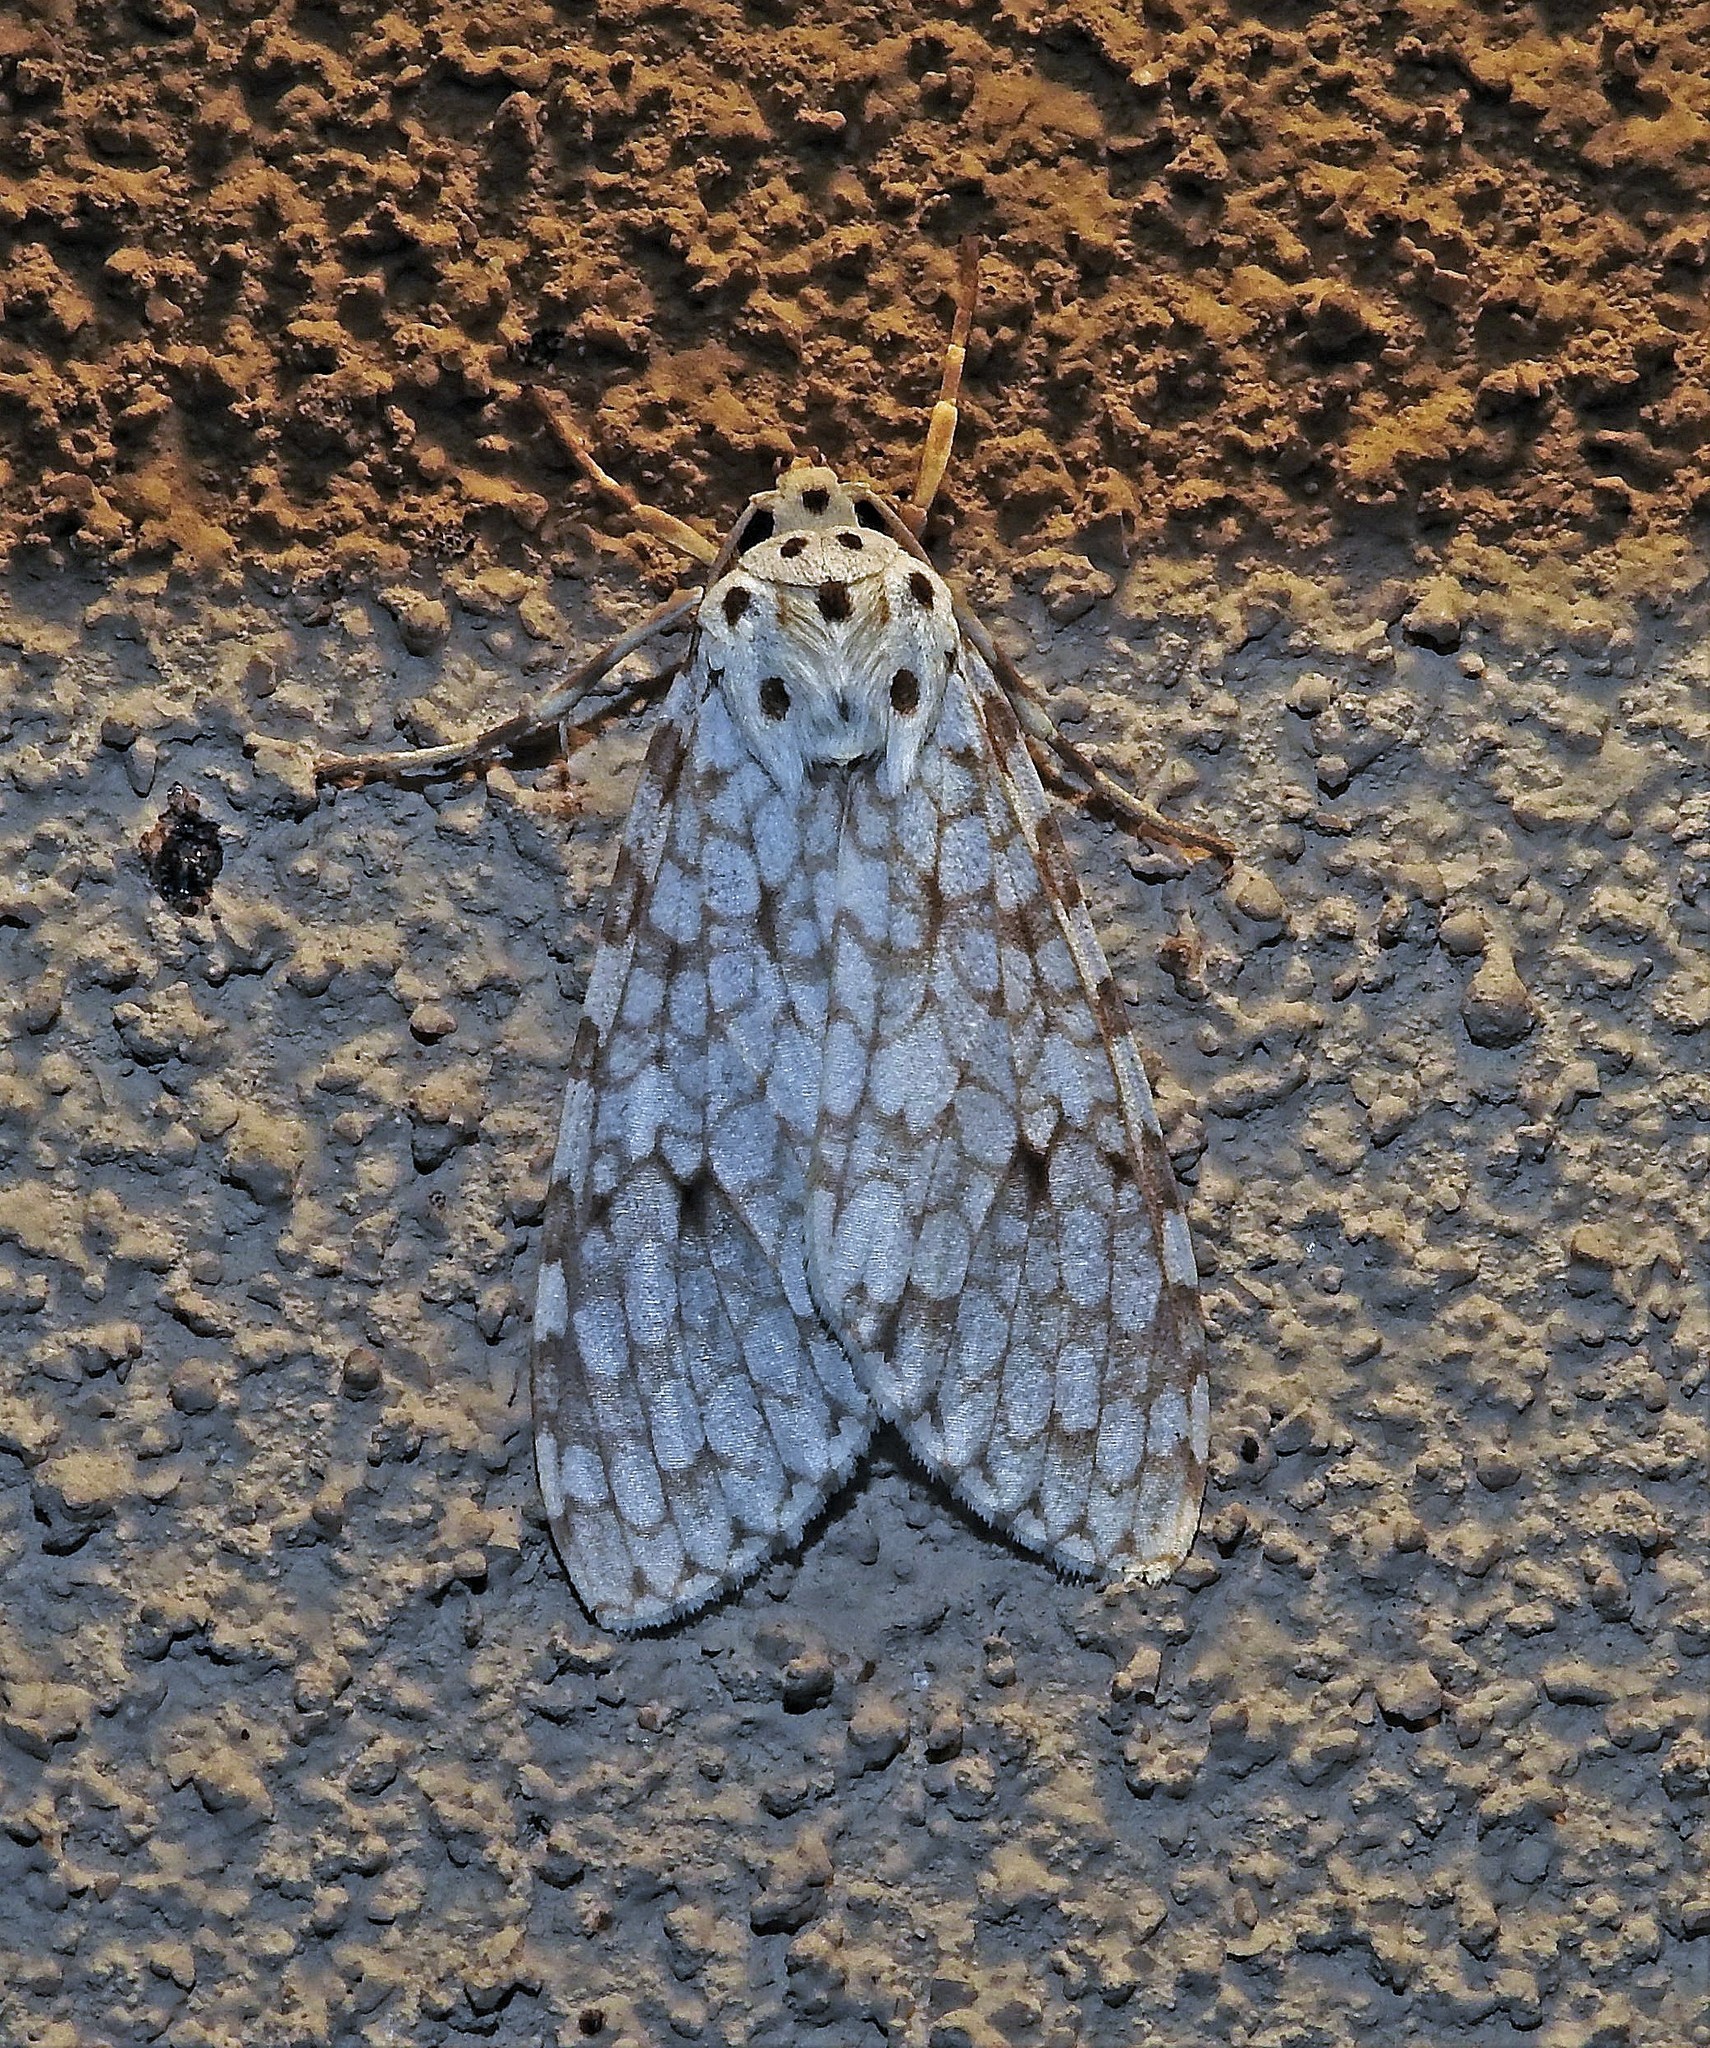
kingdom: Animalia
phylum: Arthropoda
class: Insecta
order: Lepidoptera
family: Erebidae
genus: Carales
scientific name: Carales astur
